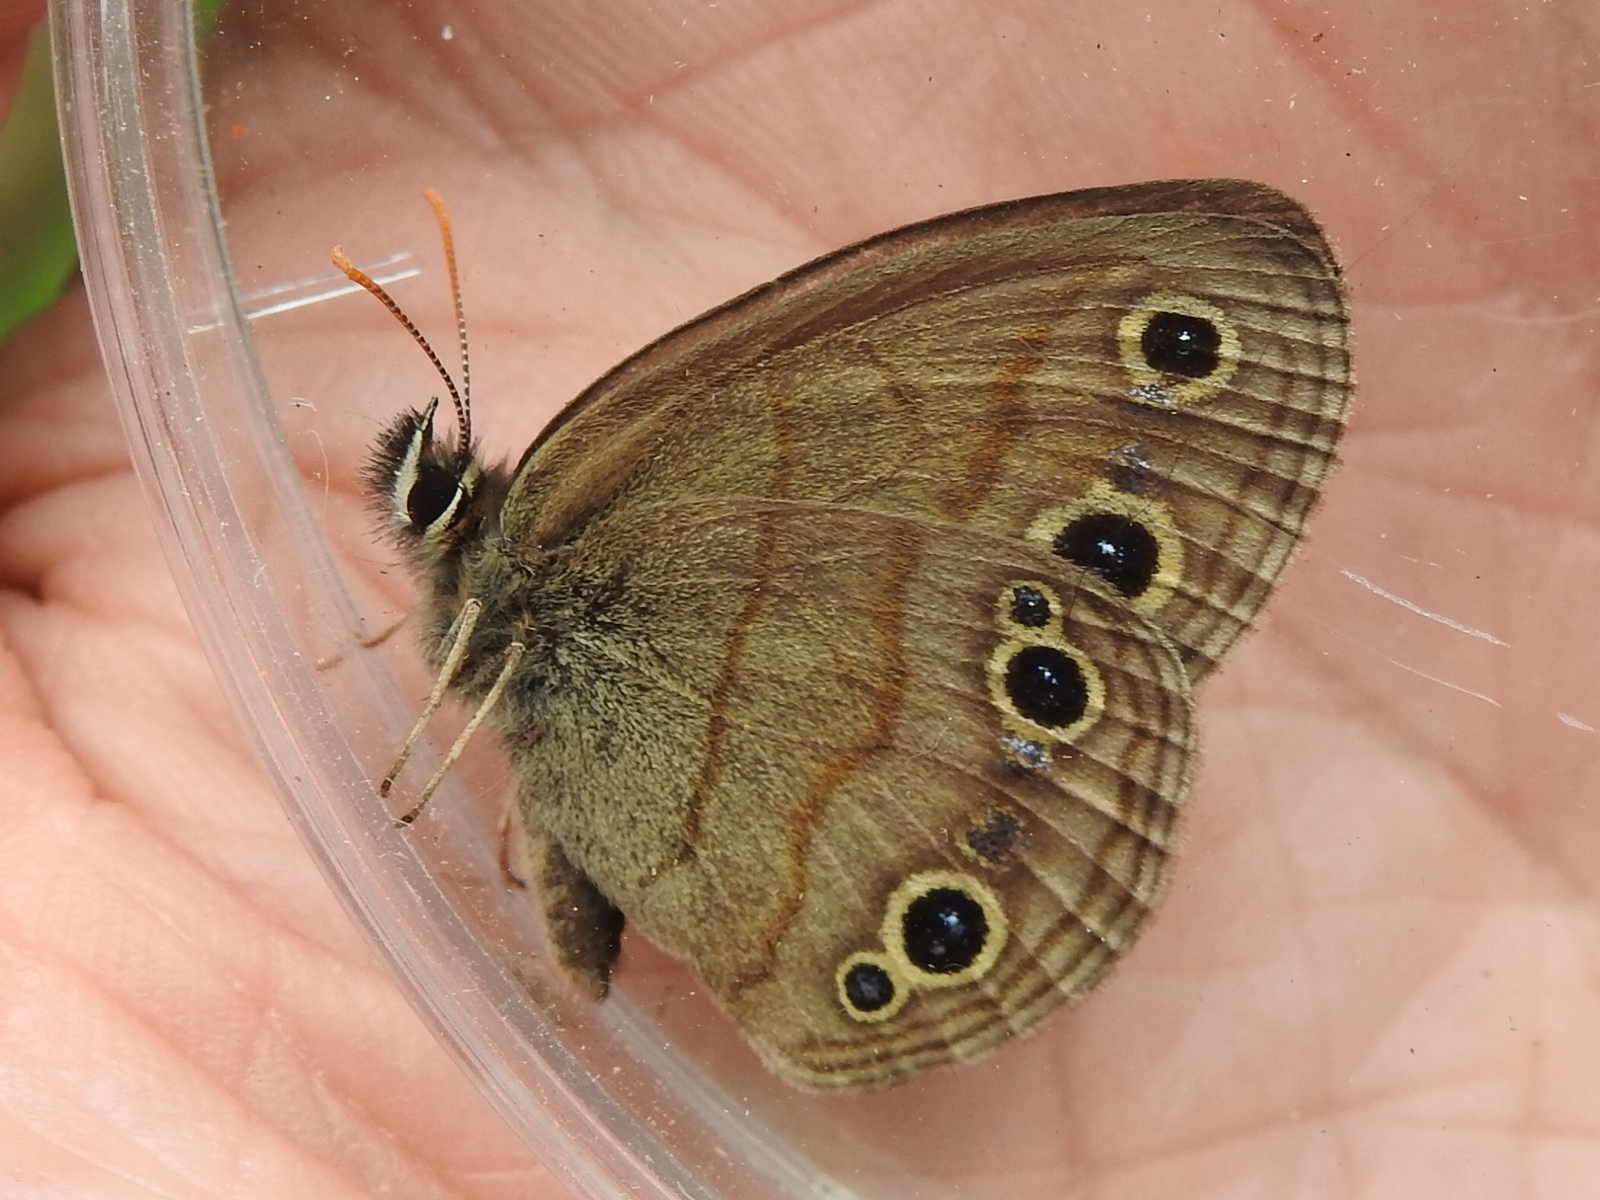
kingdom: Animalia
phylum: Arthropoda
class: Insecta
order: Lepidoptera
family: Nymphalidae
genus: Euptychia
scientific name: Euptychia cymela
